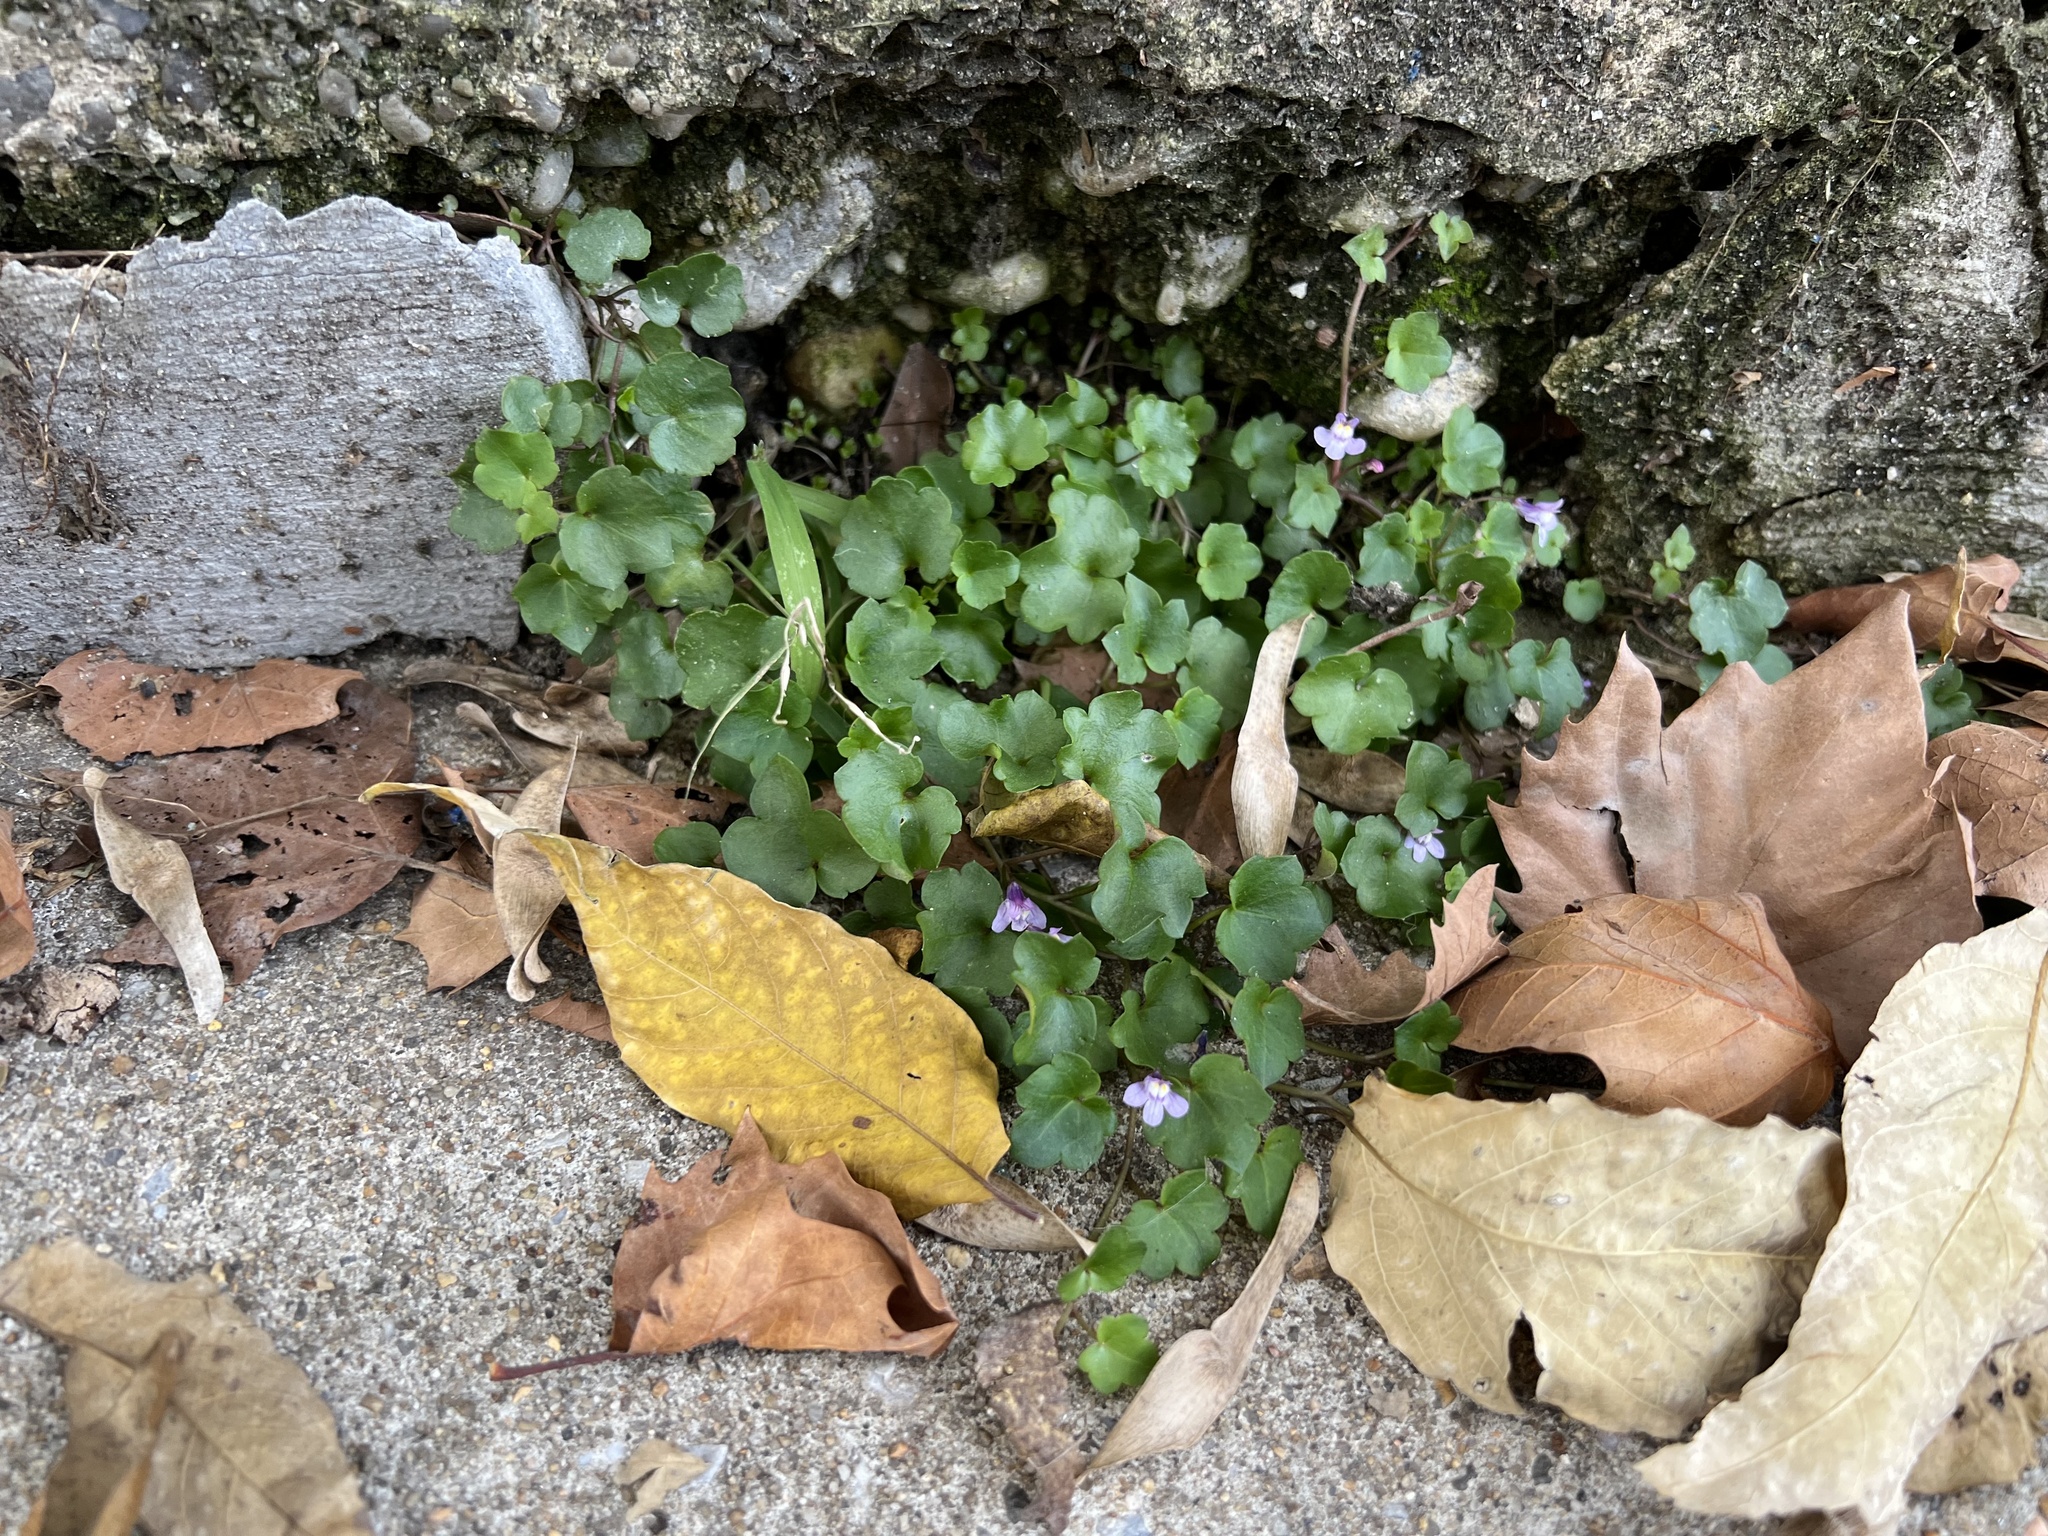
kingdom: Plantae
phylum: Tracheophyta
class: Magnoliopsida
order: Lamiales
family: Plantaginaceae
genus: Cymbalaria
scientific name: Cymbalaria muralis
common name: Ivy-leaved toadflax
